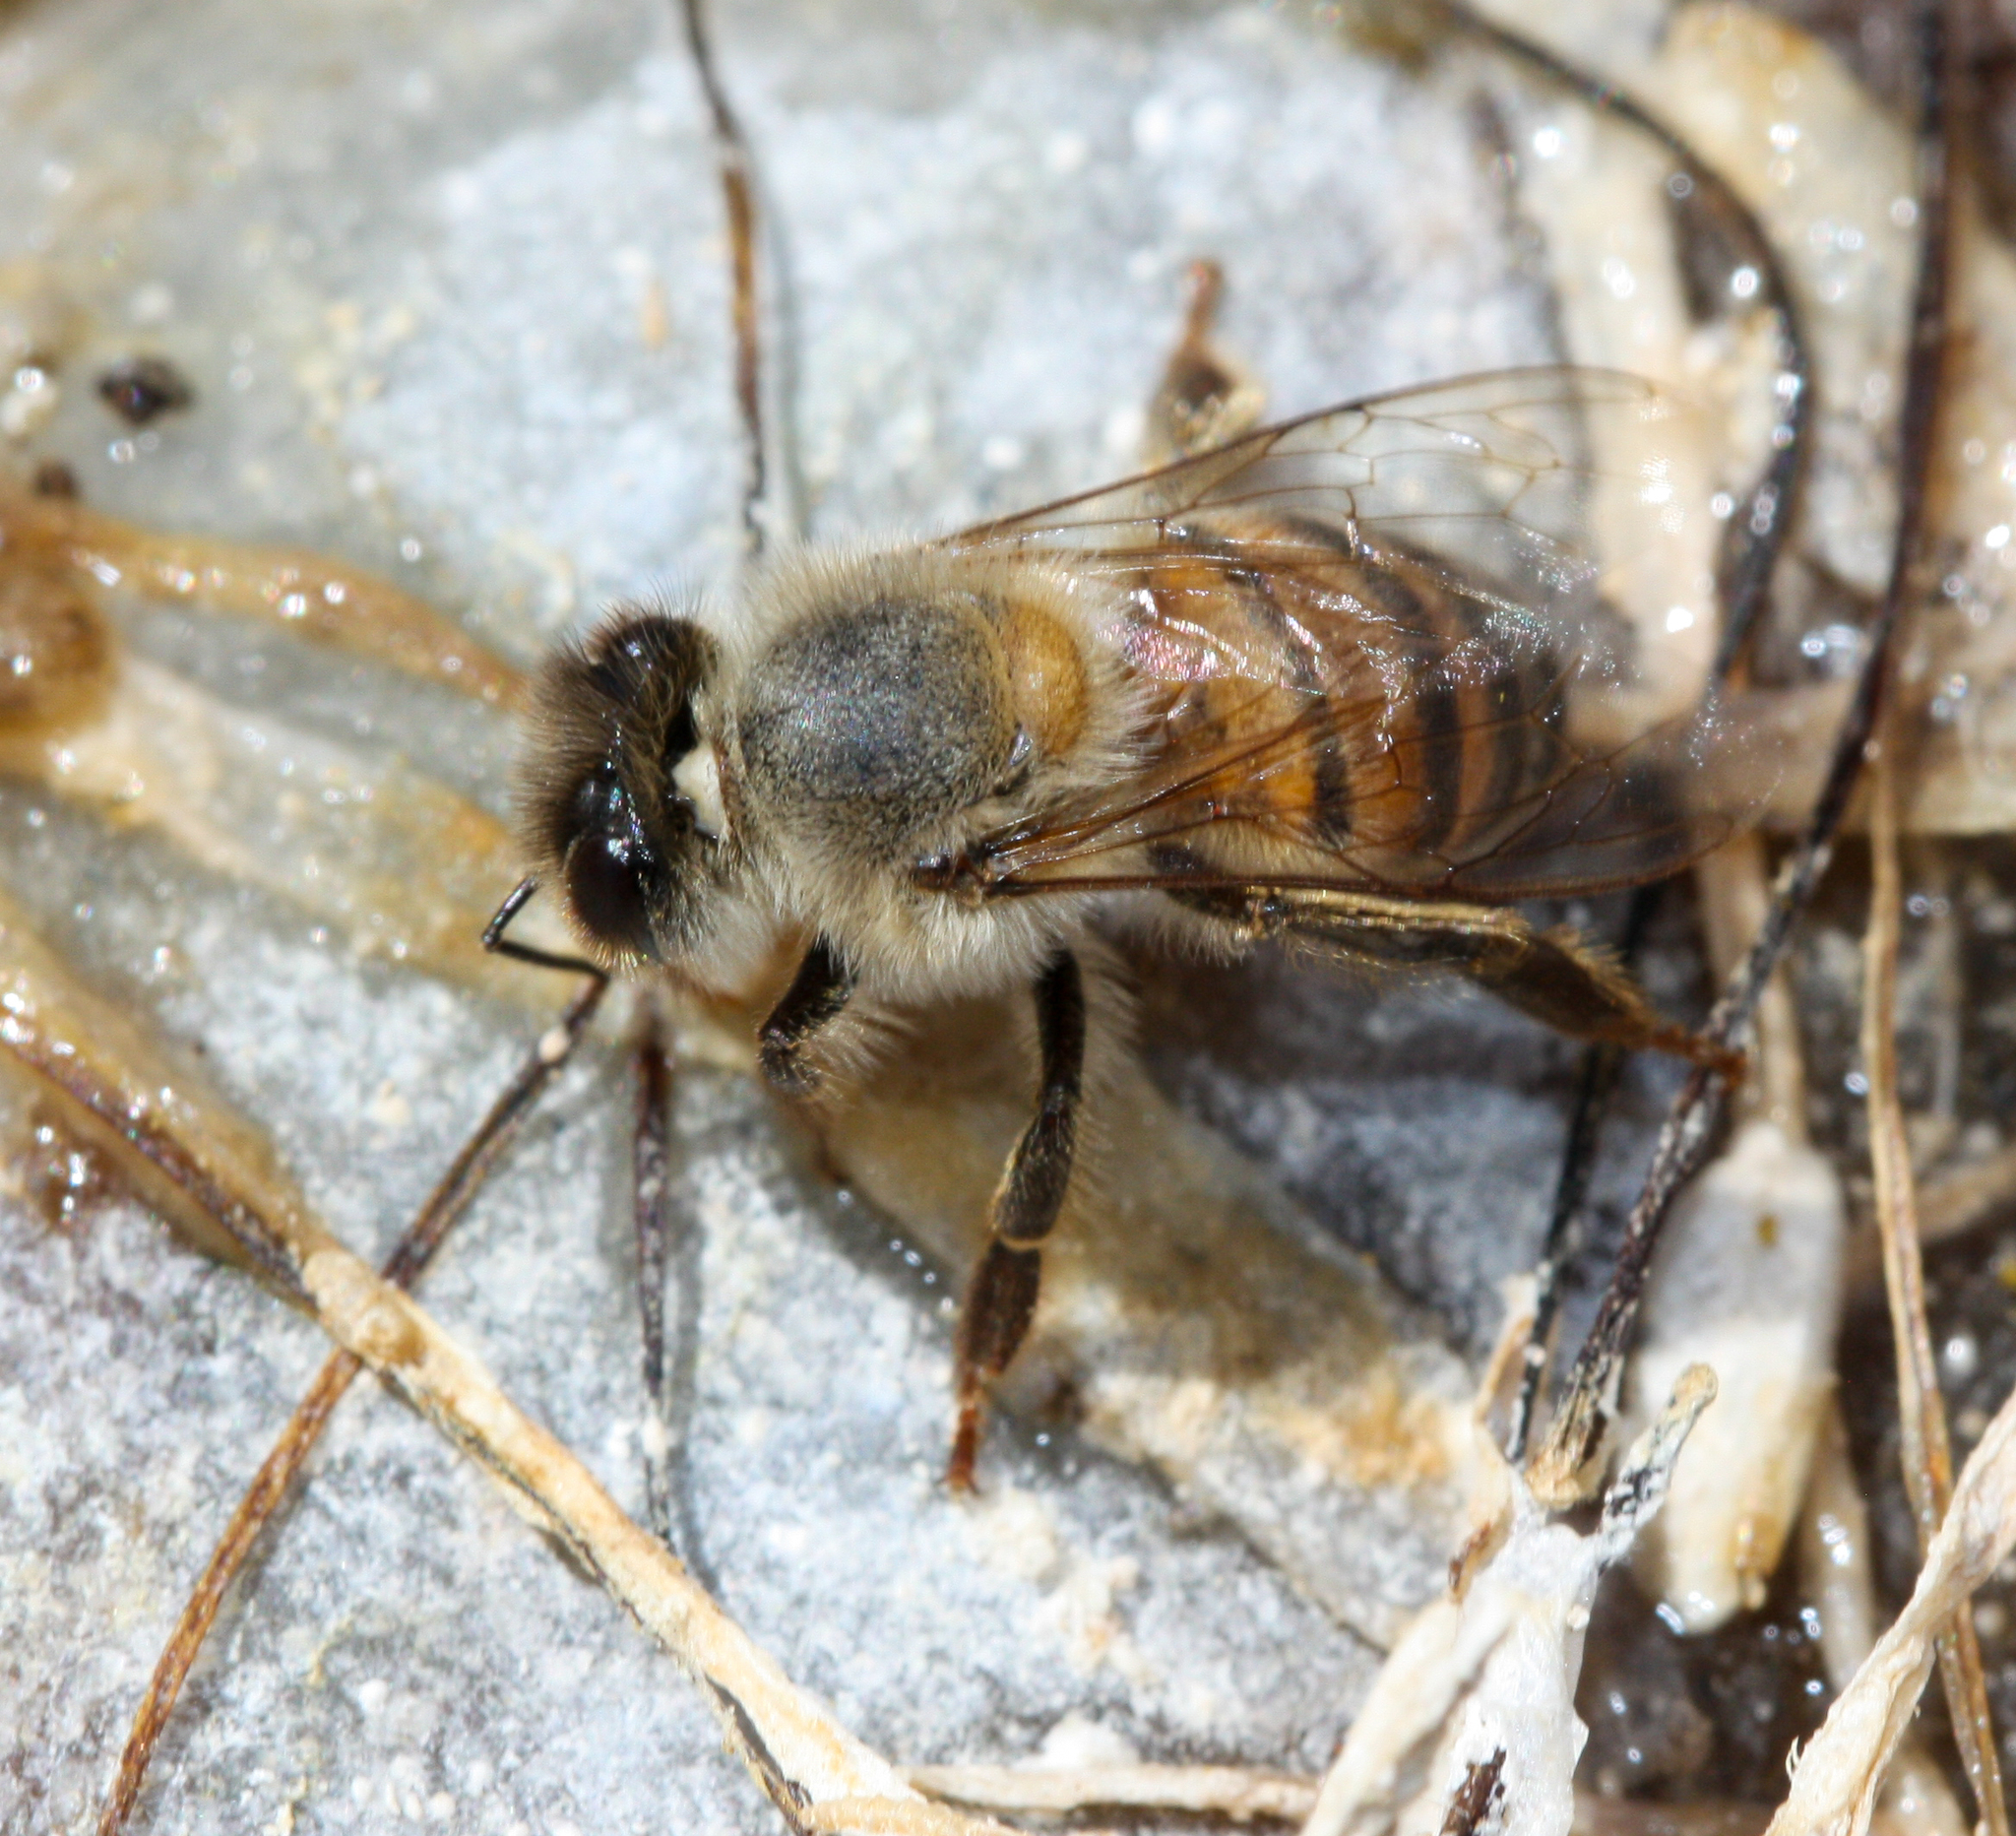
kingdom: Animalia
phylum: Arthropoda
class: Insecta
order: Hymenoptera
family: Apidae
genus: Apis
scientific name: Apis mellifera
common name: Honey bee
